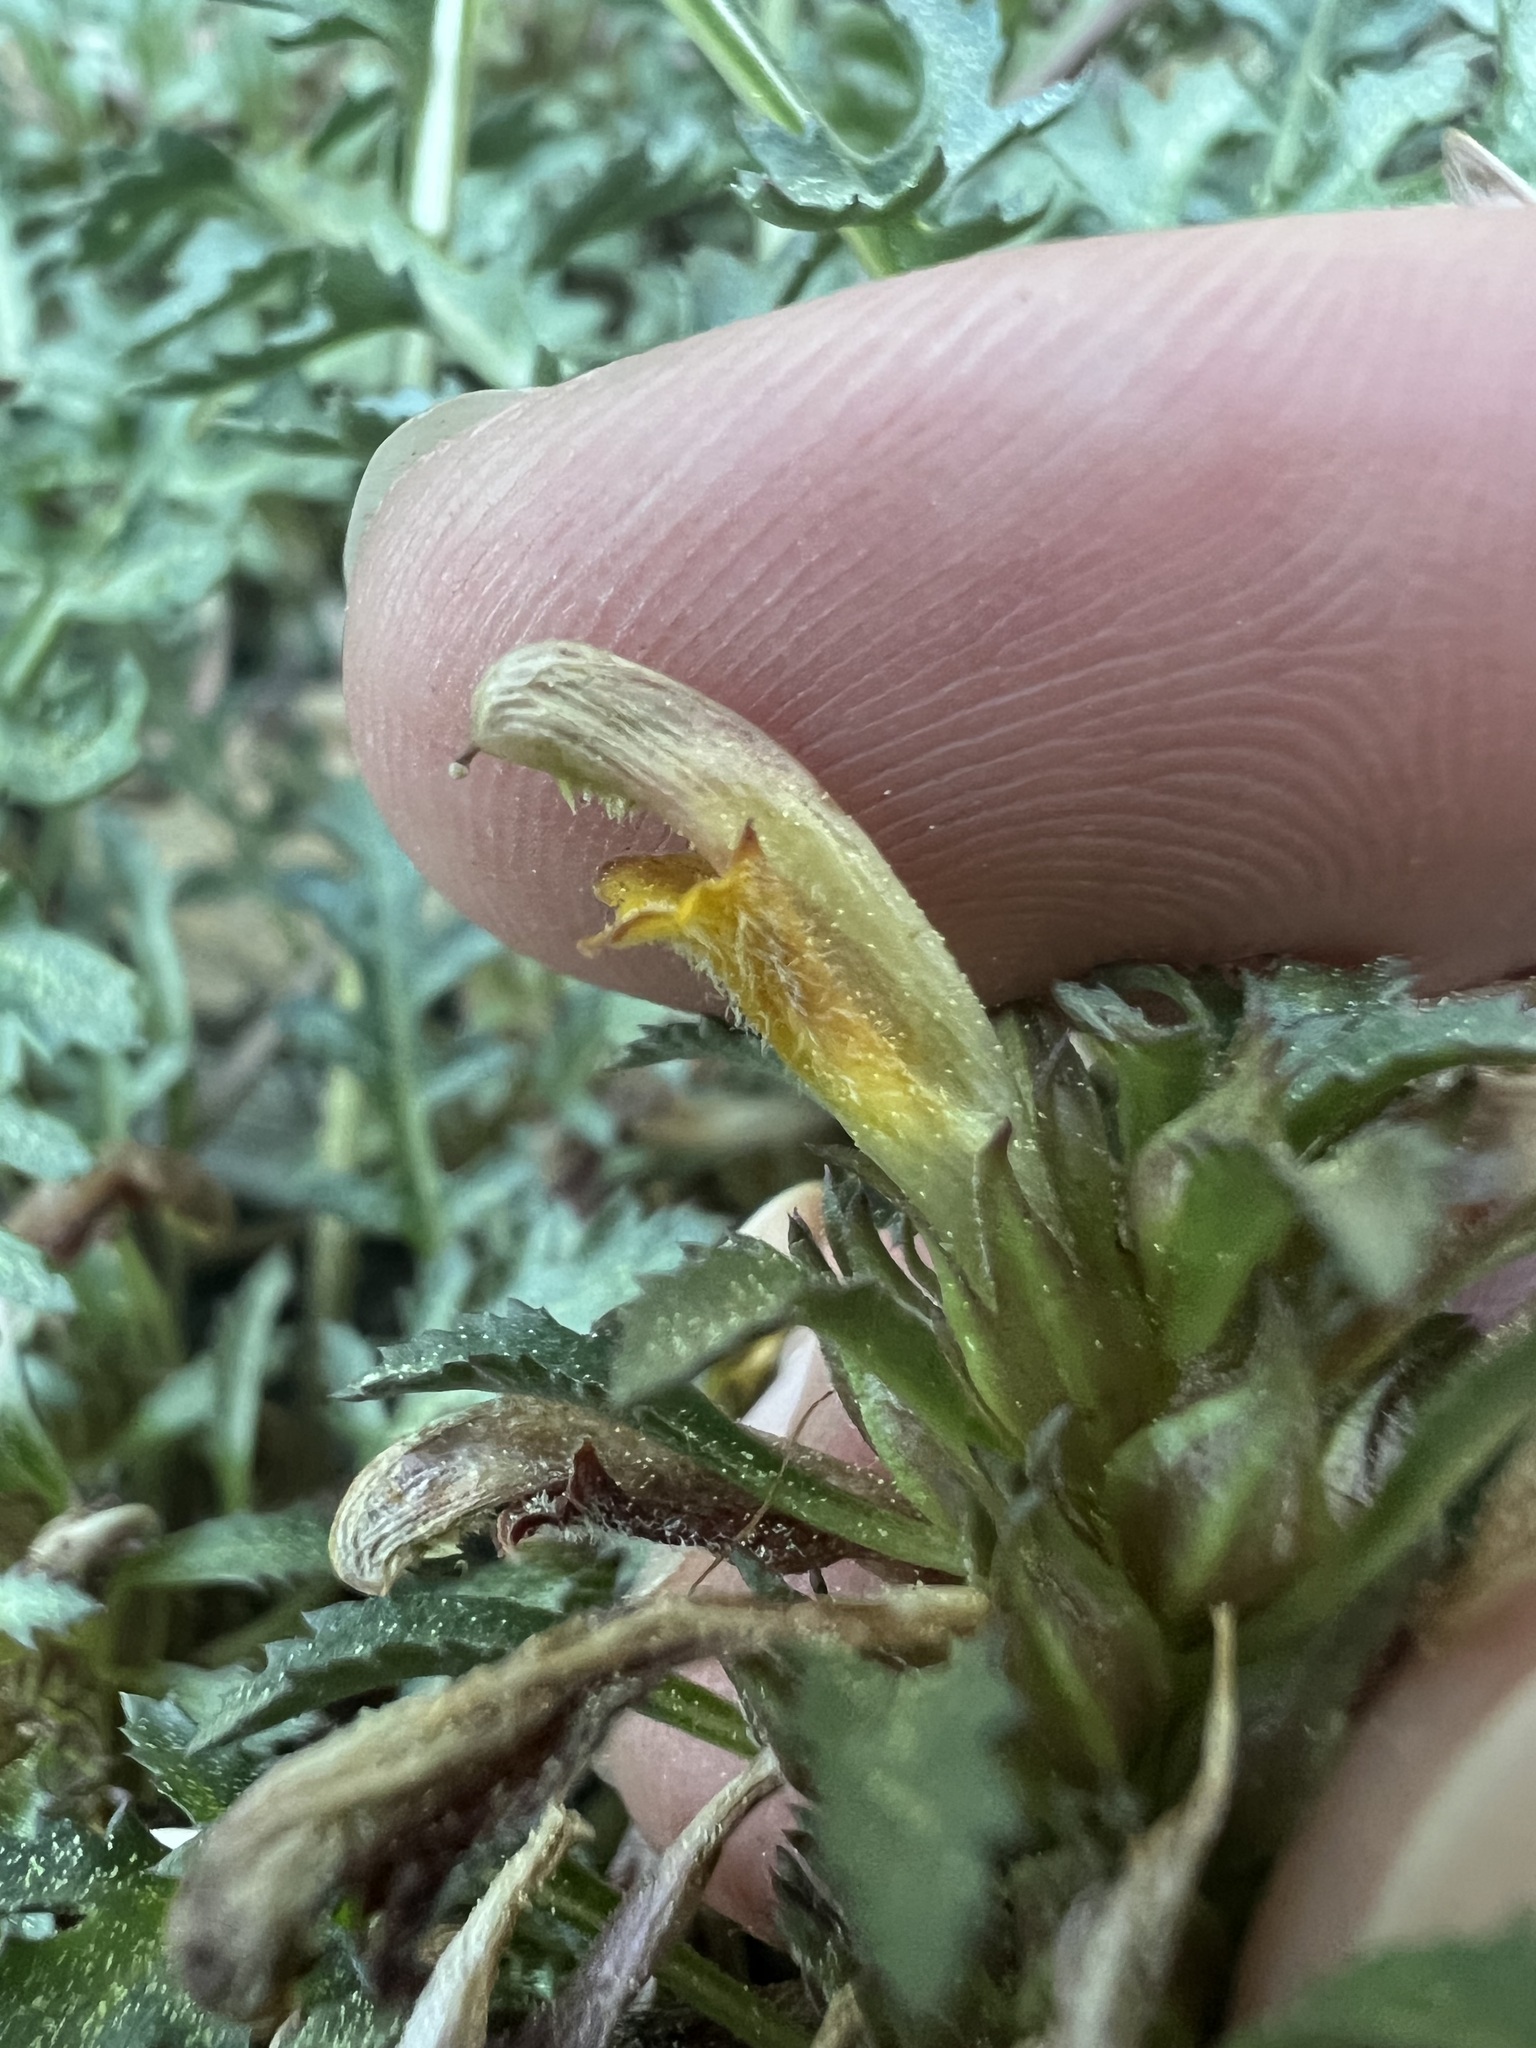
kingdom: Plantae
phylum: Tracheophyta
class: Magnoliopsida
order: Lamiales
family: Orobanchaceae
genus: Pedicularis
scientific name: Pedicularis semibarbata
